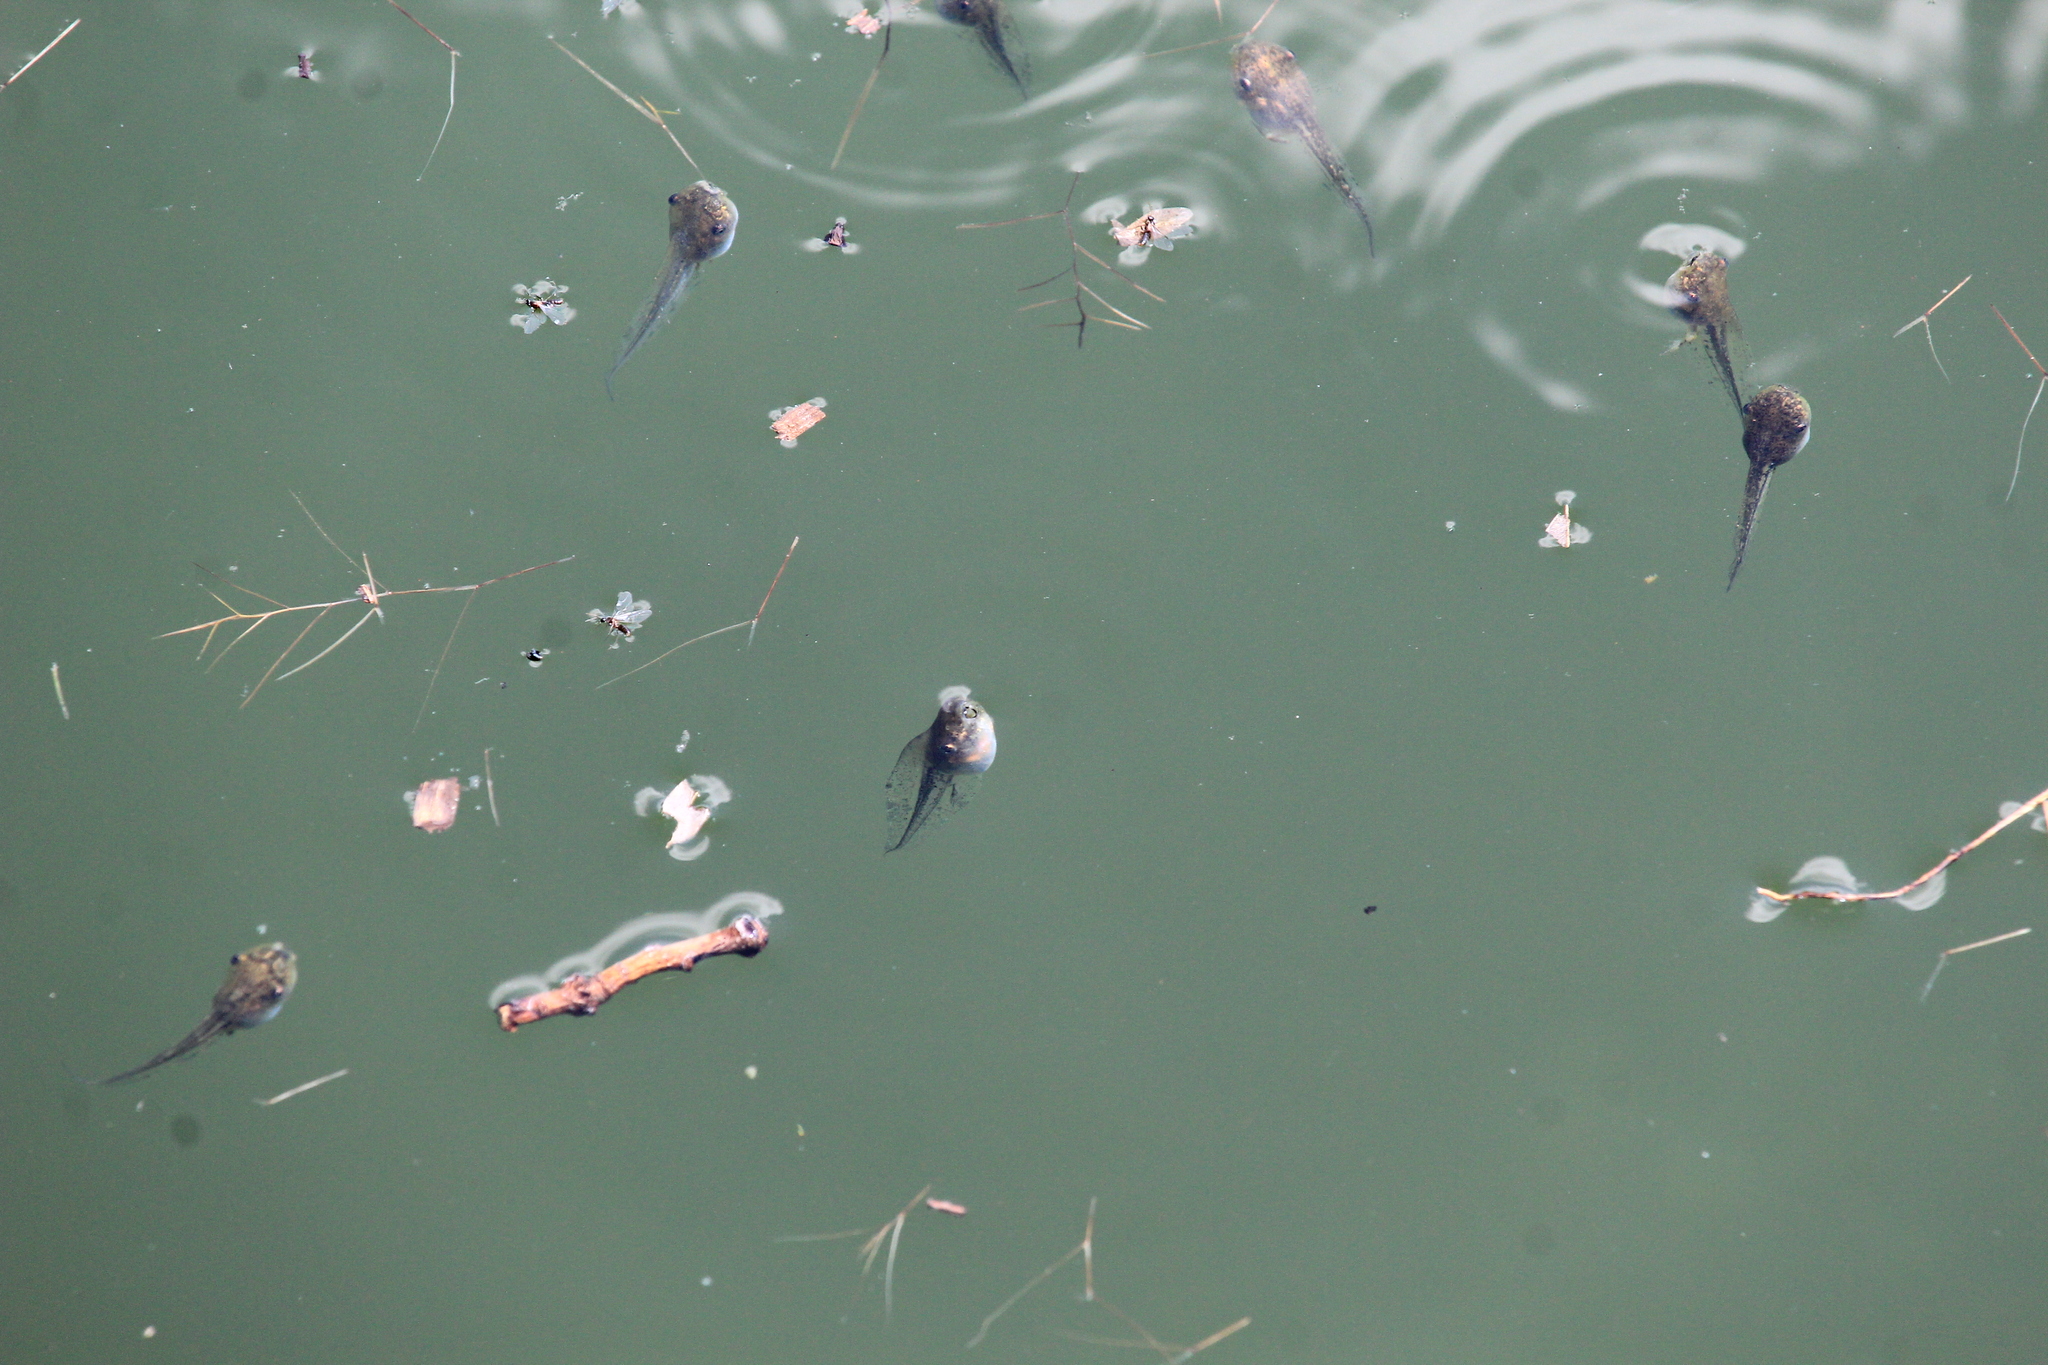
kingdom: Animalia
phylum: Chordata
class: Amphibia
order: Anura
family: Hylidae
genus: Hyla
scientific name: Hyla orientalis
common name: Caucasian treefrog
